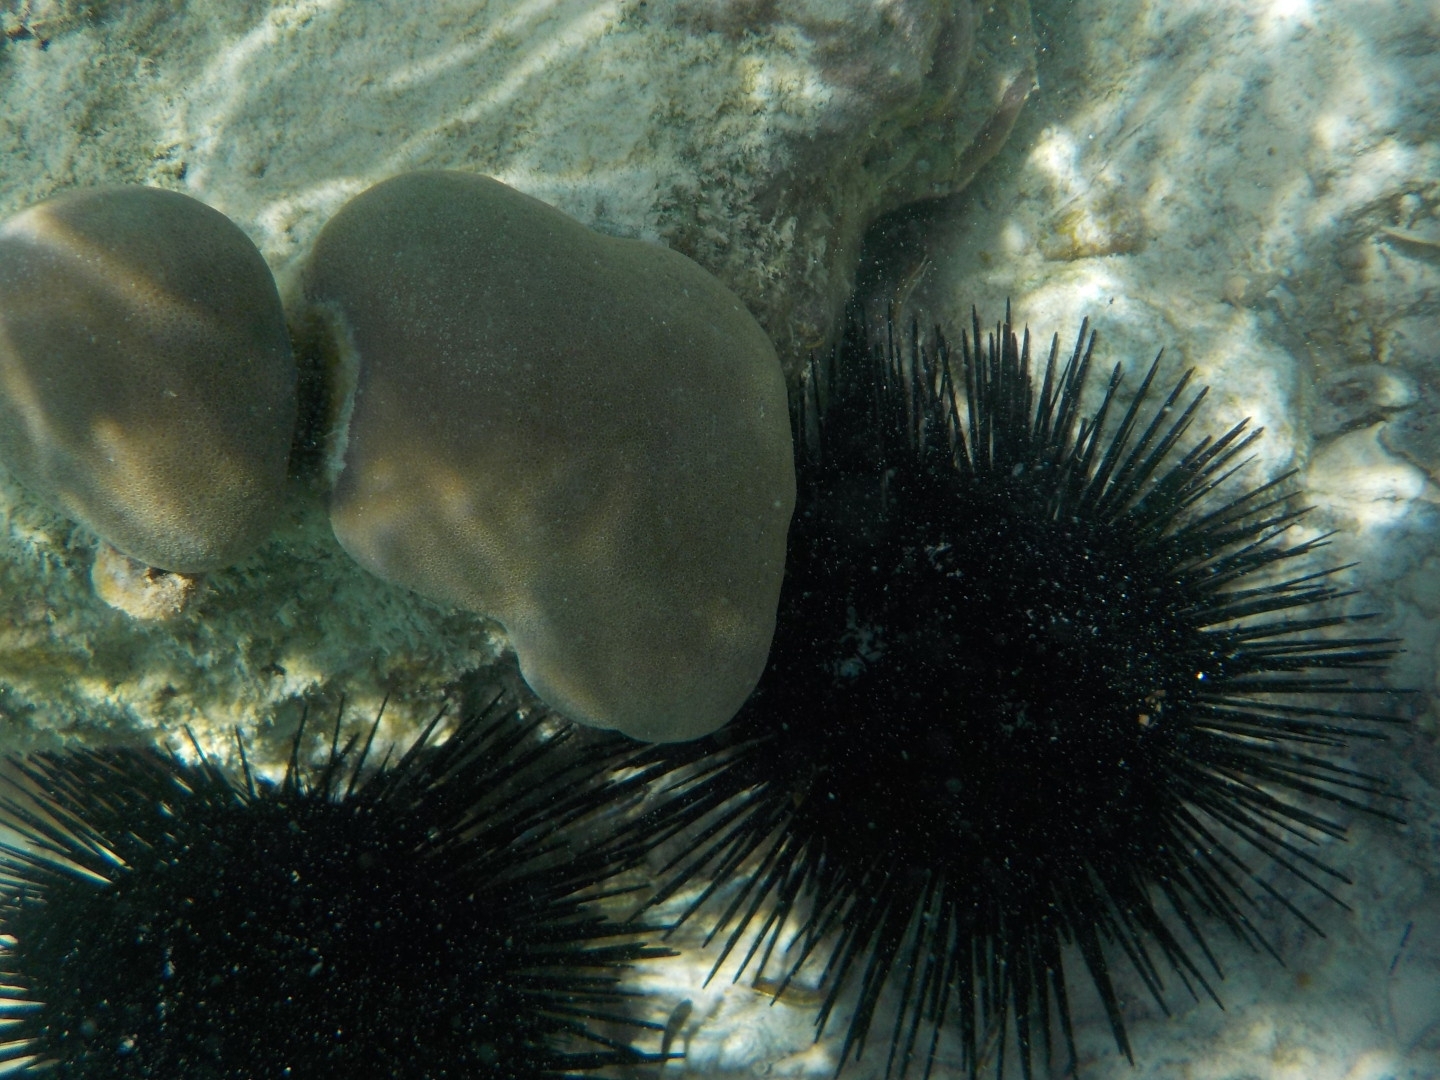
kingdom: Animalia
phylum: Echinodermata
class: Echinoidea
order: Diadematoida
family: Diadematidae
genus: Echinothrix
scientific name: Echinothrix calamaris
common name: Banded sea urchin
